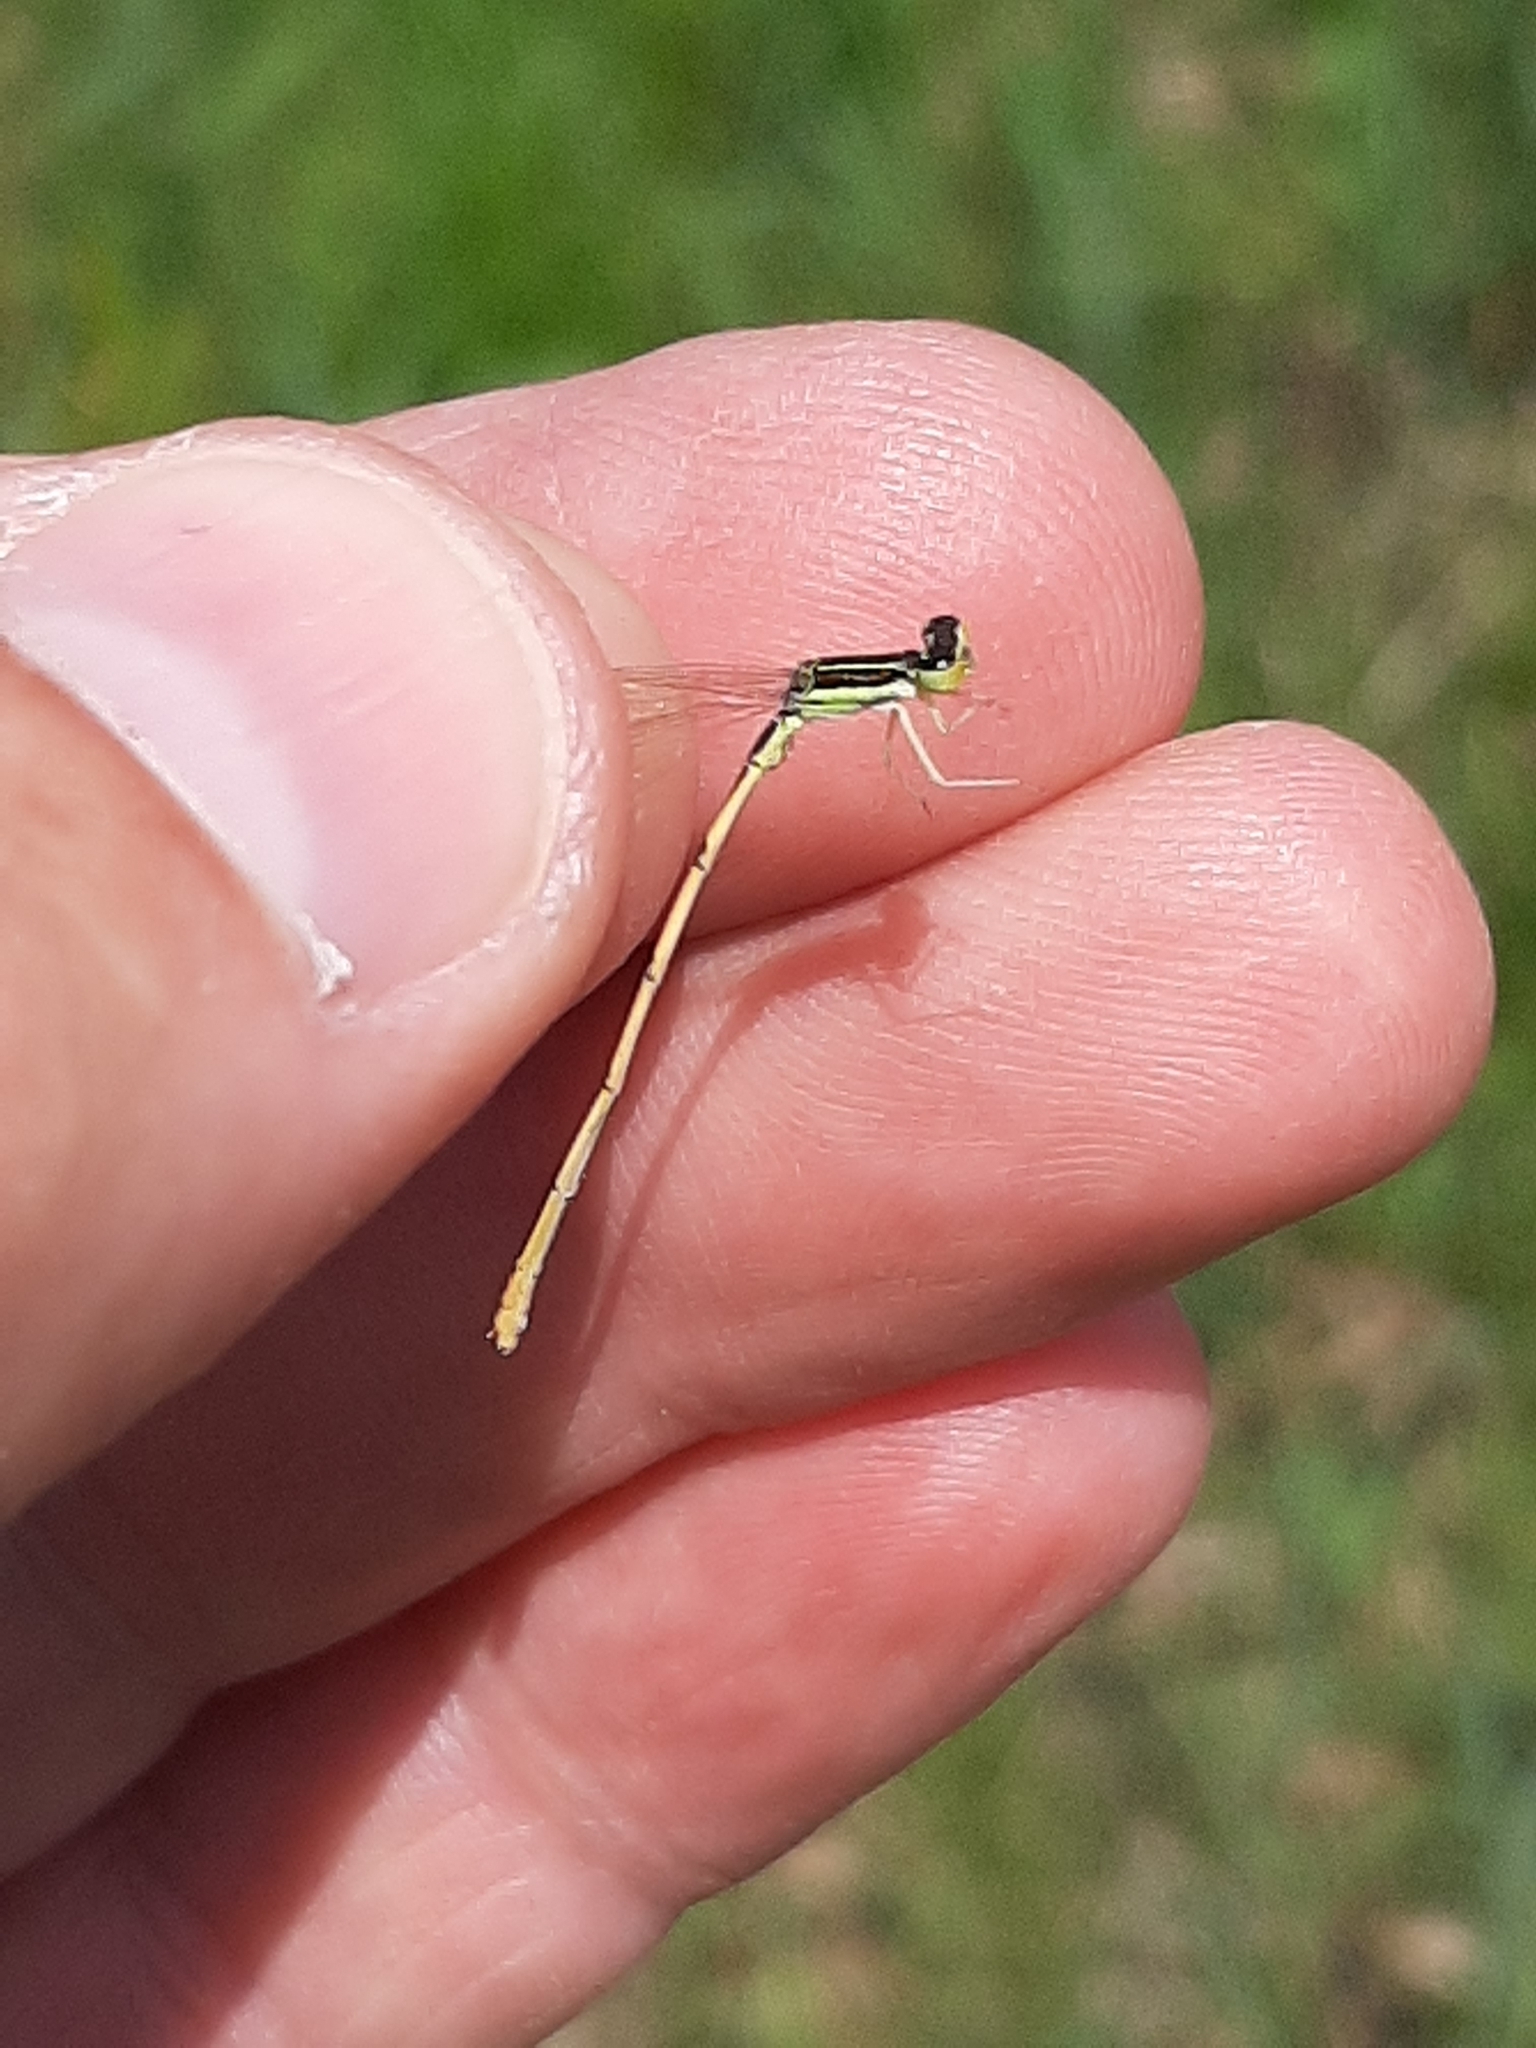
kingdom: Animalia
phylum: Arthropoda
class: Insecta
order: Odonata
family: Coenagrionidae
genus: Ischnura
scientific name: Ischnura hastata
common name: Citrine forktail
